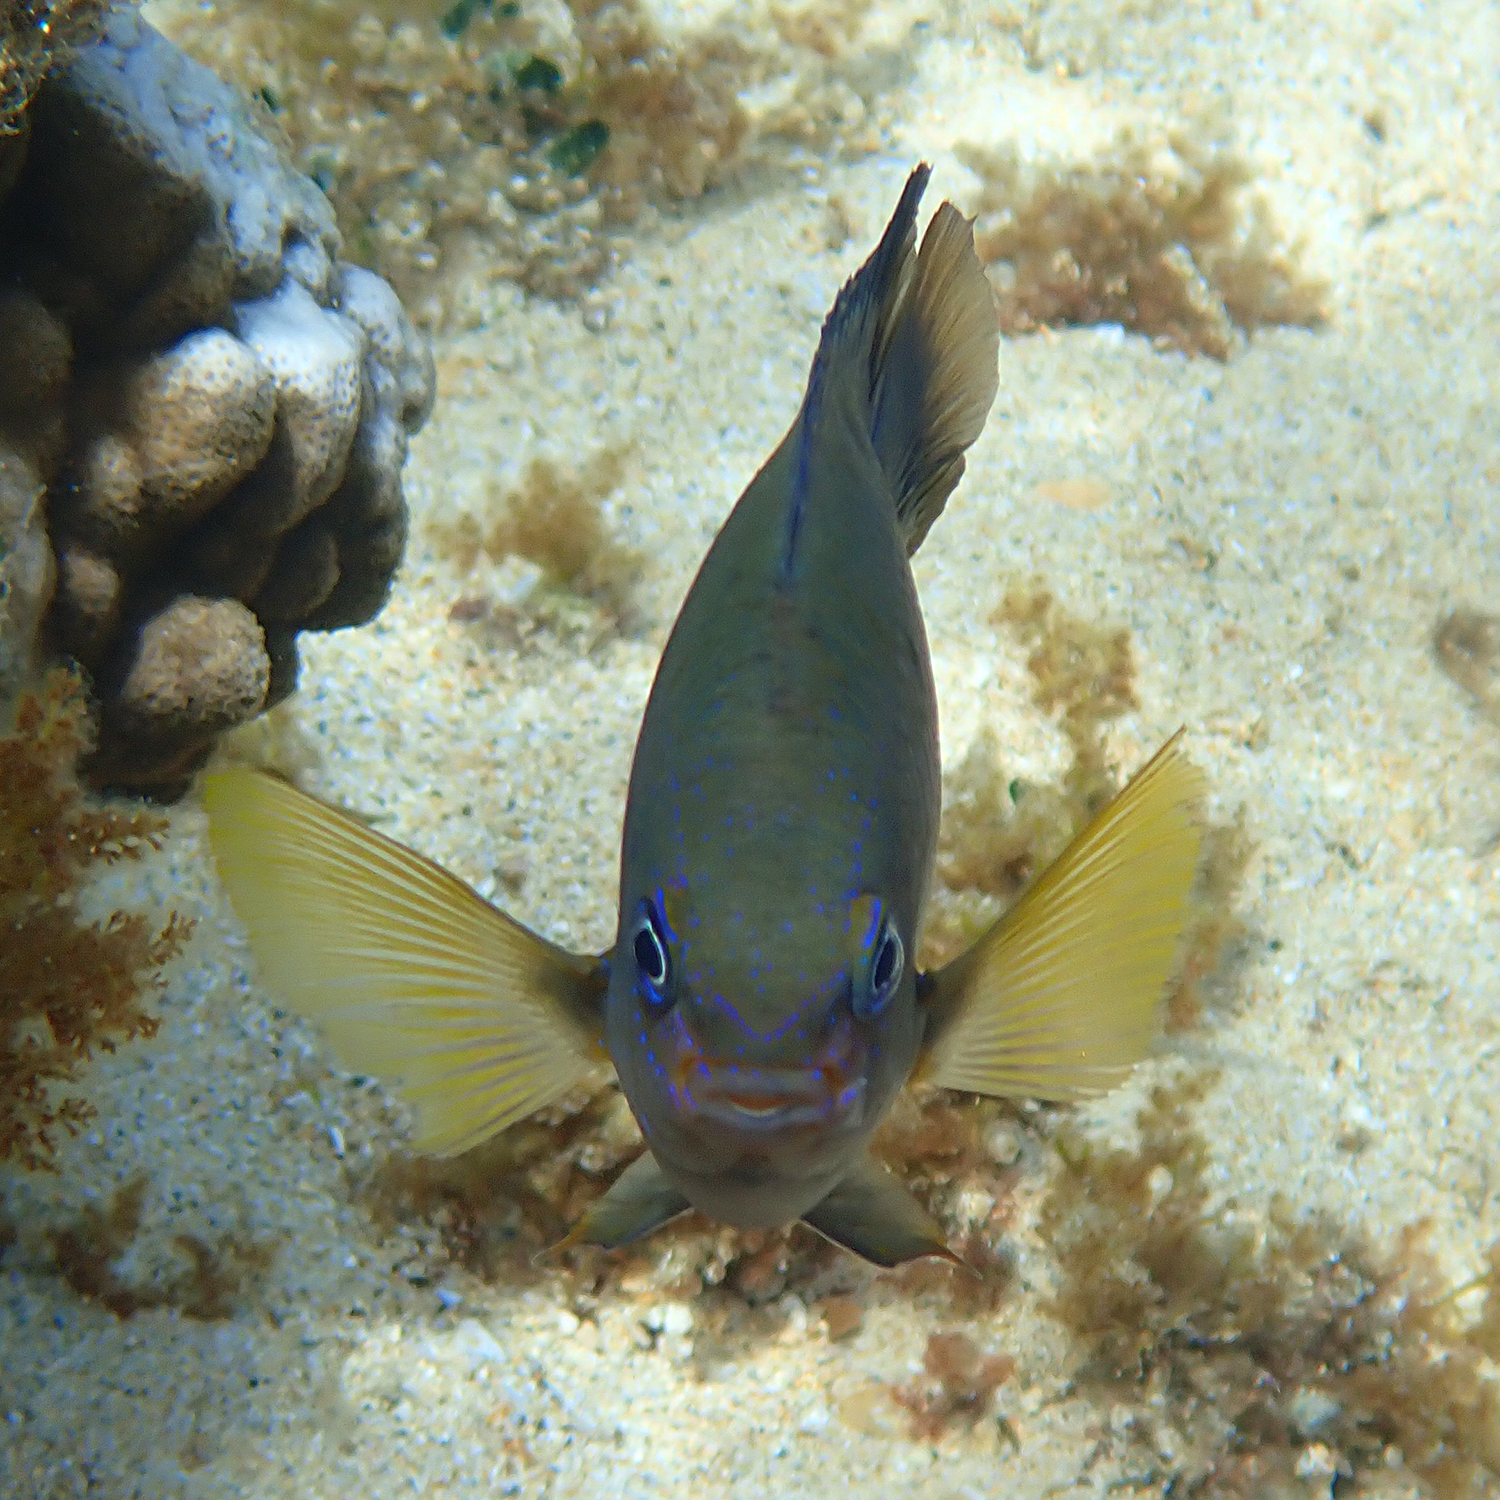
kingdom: Animalia
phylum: Chordata
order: Perciformes
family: Pomacentridae
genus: Neoglyphidodon
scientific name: Neoglyphidodon polyacanthus
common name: Multi-spined damsel
